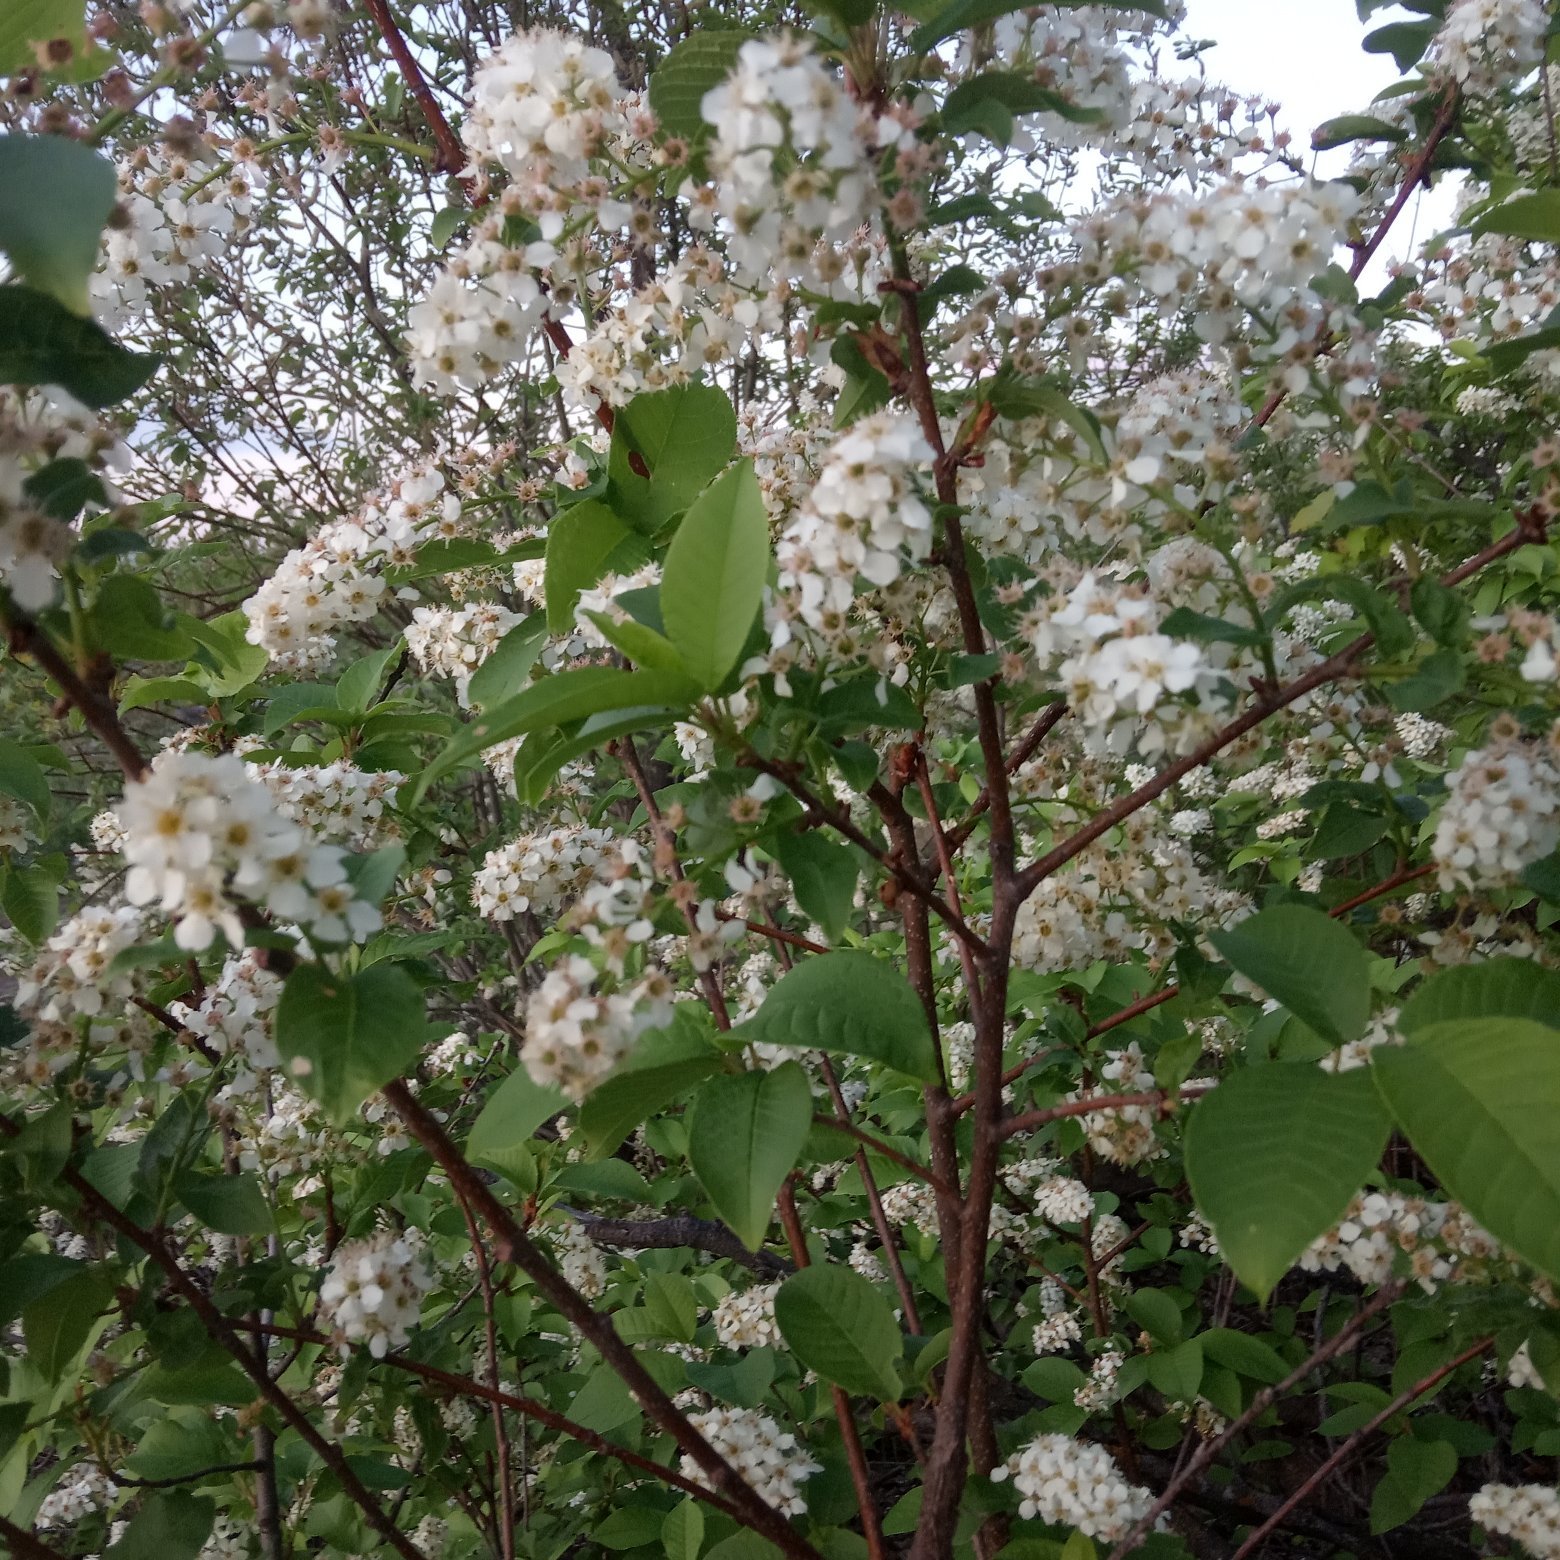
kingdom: Plantae
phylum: Tracheophyta
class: Magnoliopsida
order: Rosales
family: Rosaceae
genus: Prunus
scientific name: Prunus padus
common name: Bird cherry
